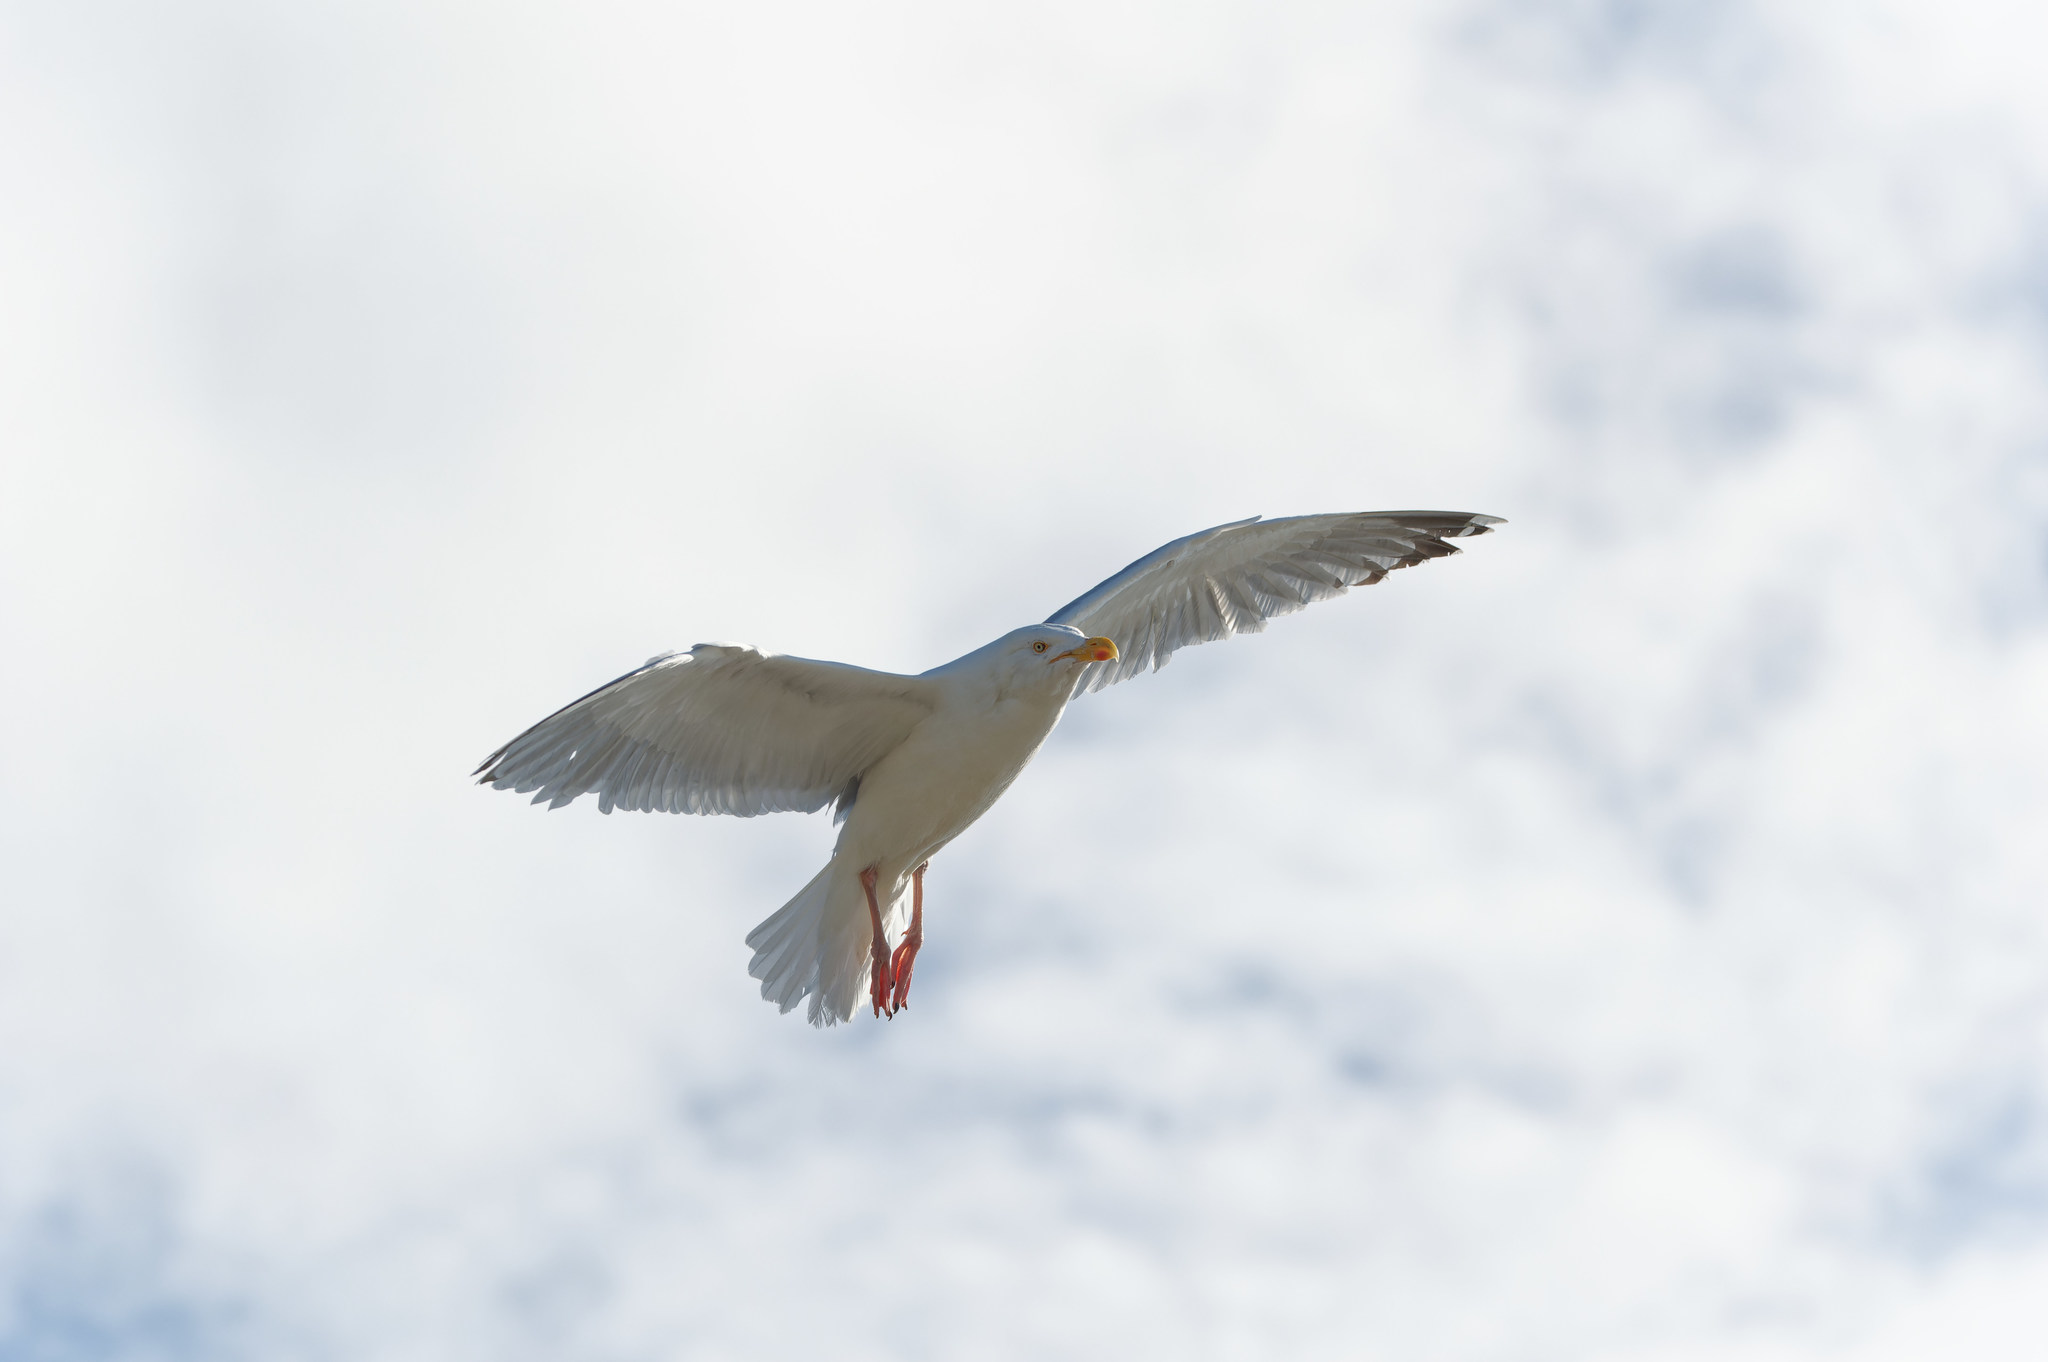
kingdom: Animalia
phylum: Chordata
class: Aves
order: Charadriiformes
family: Laridae
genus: Larus
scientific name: Larus argentatus
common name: Herring gull
